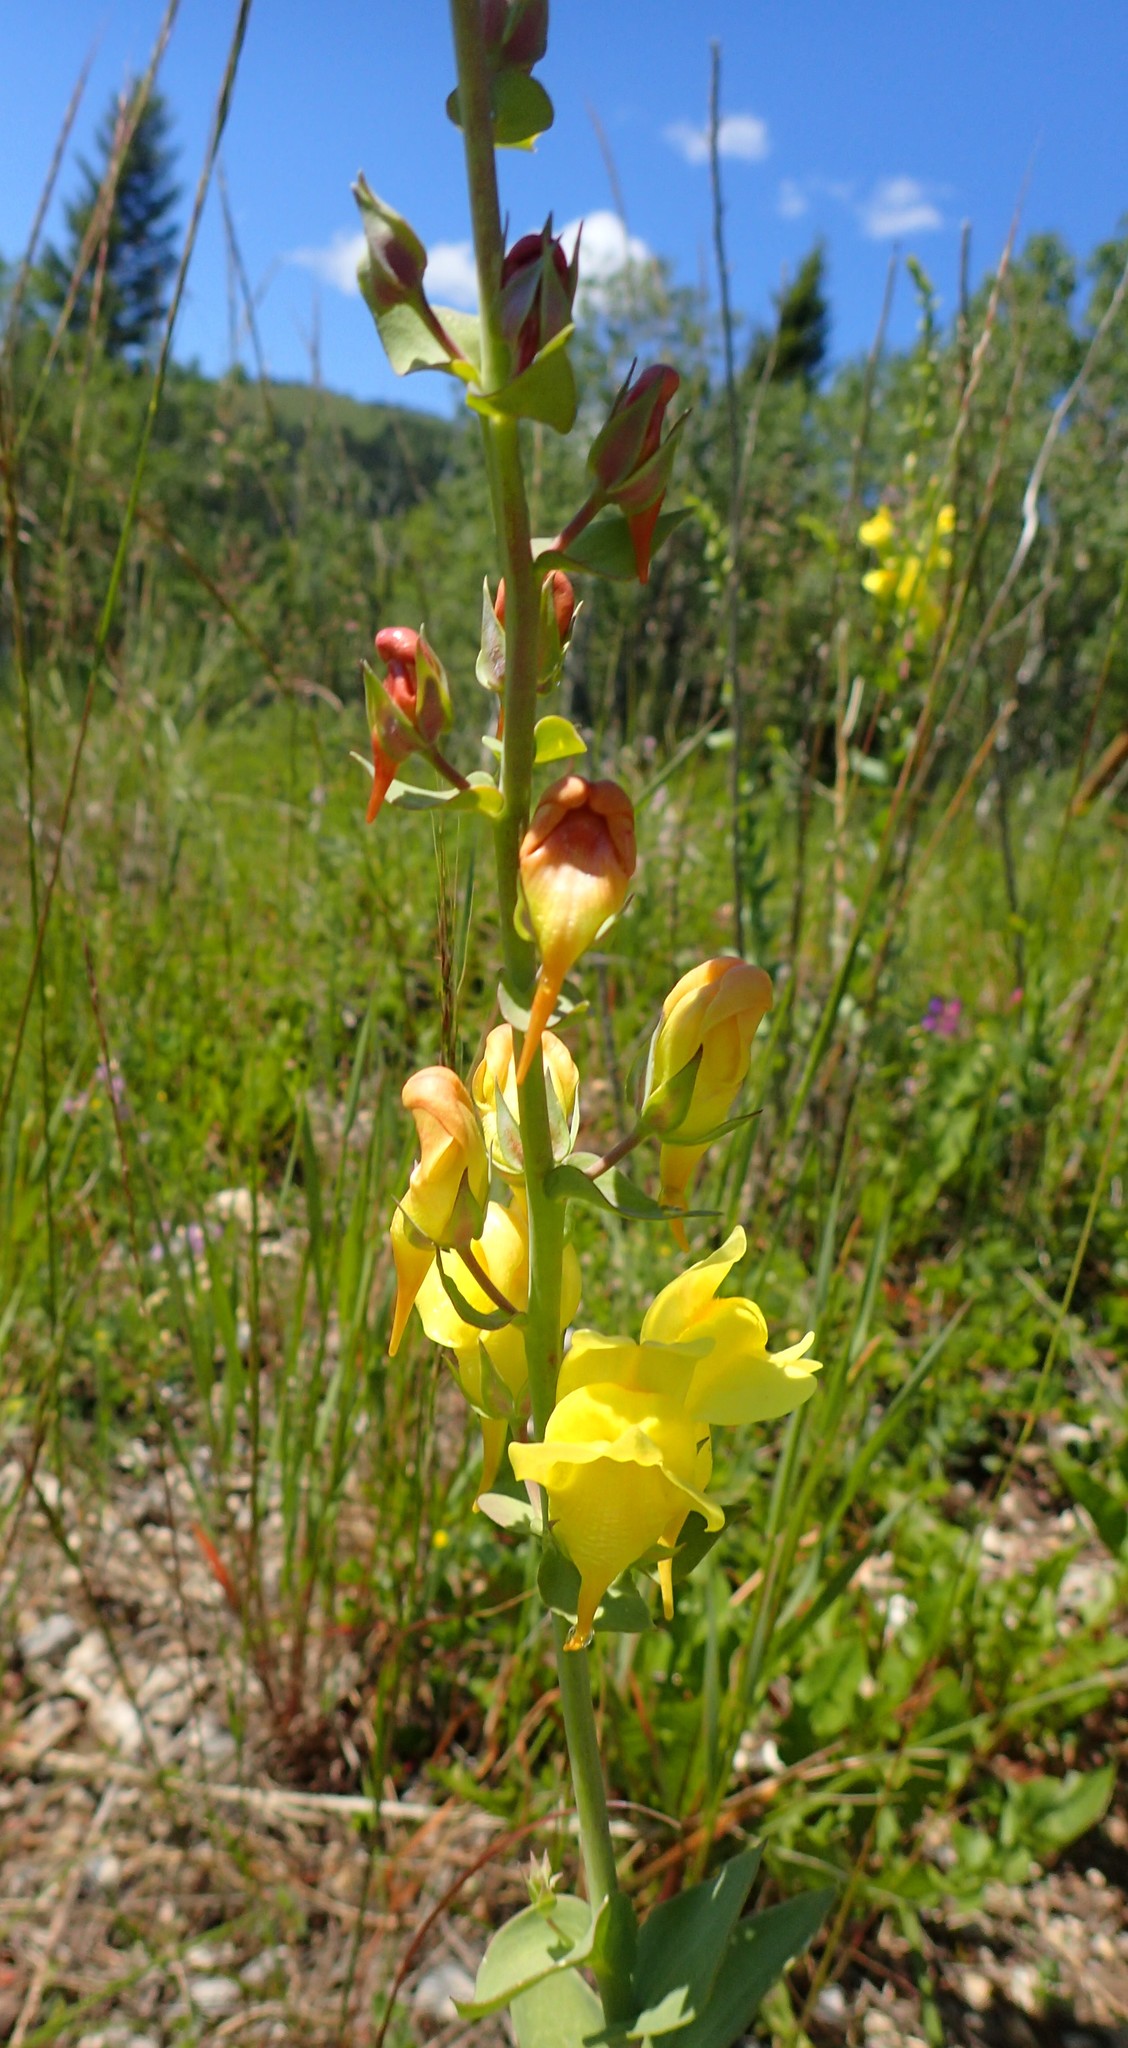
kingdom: Plantae
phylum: Tracheophyta
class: Magnoliopsida
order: Lamiales
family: Plantaginaceae
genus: Linaria
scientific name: Linaria dalmatica
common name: Dalmatian toadflax
